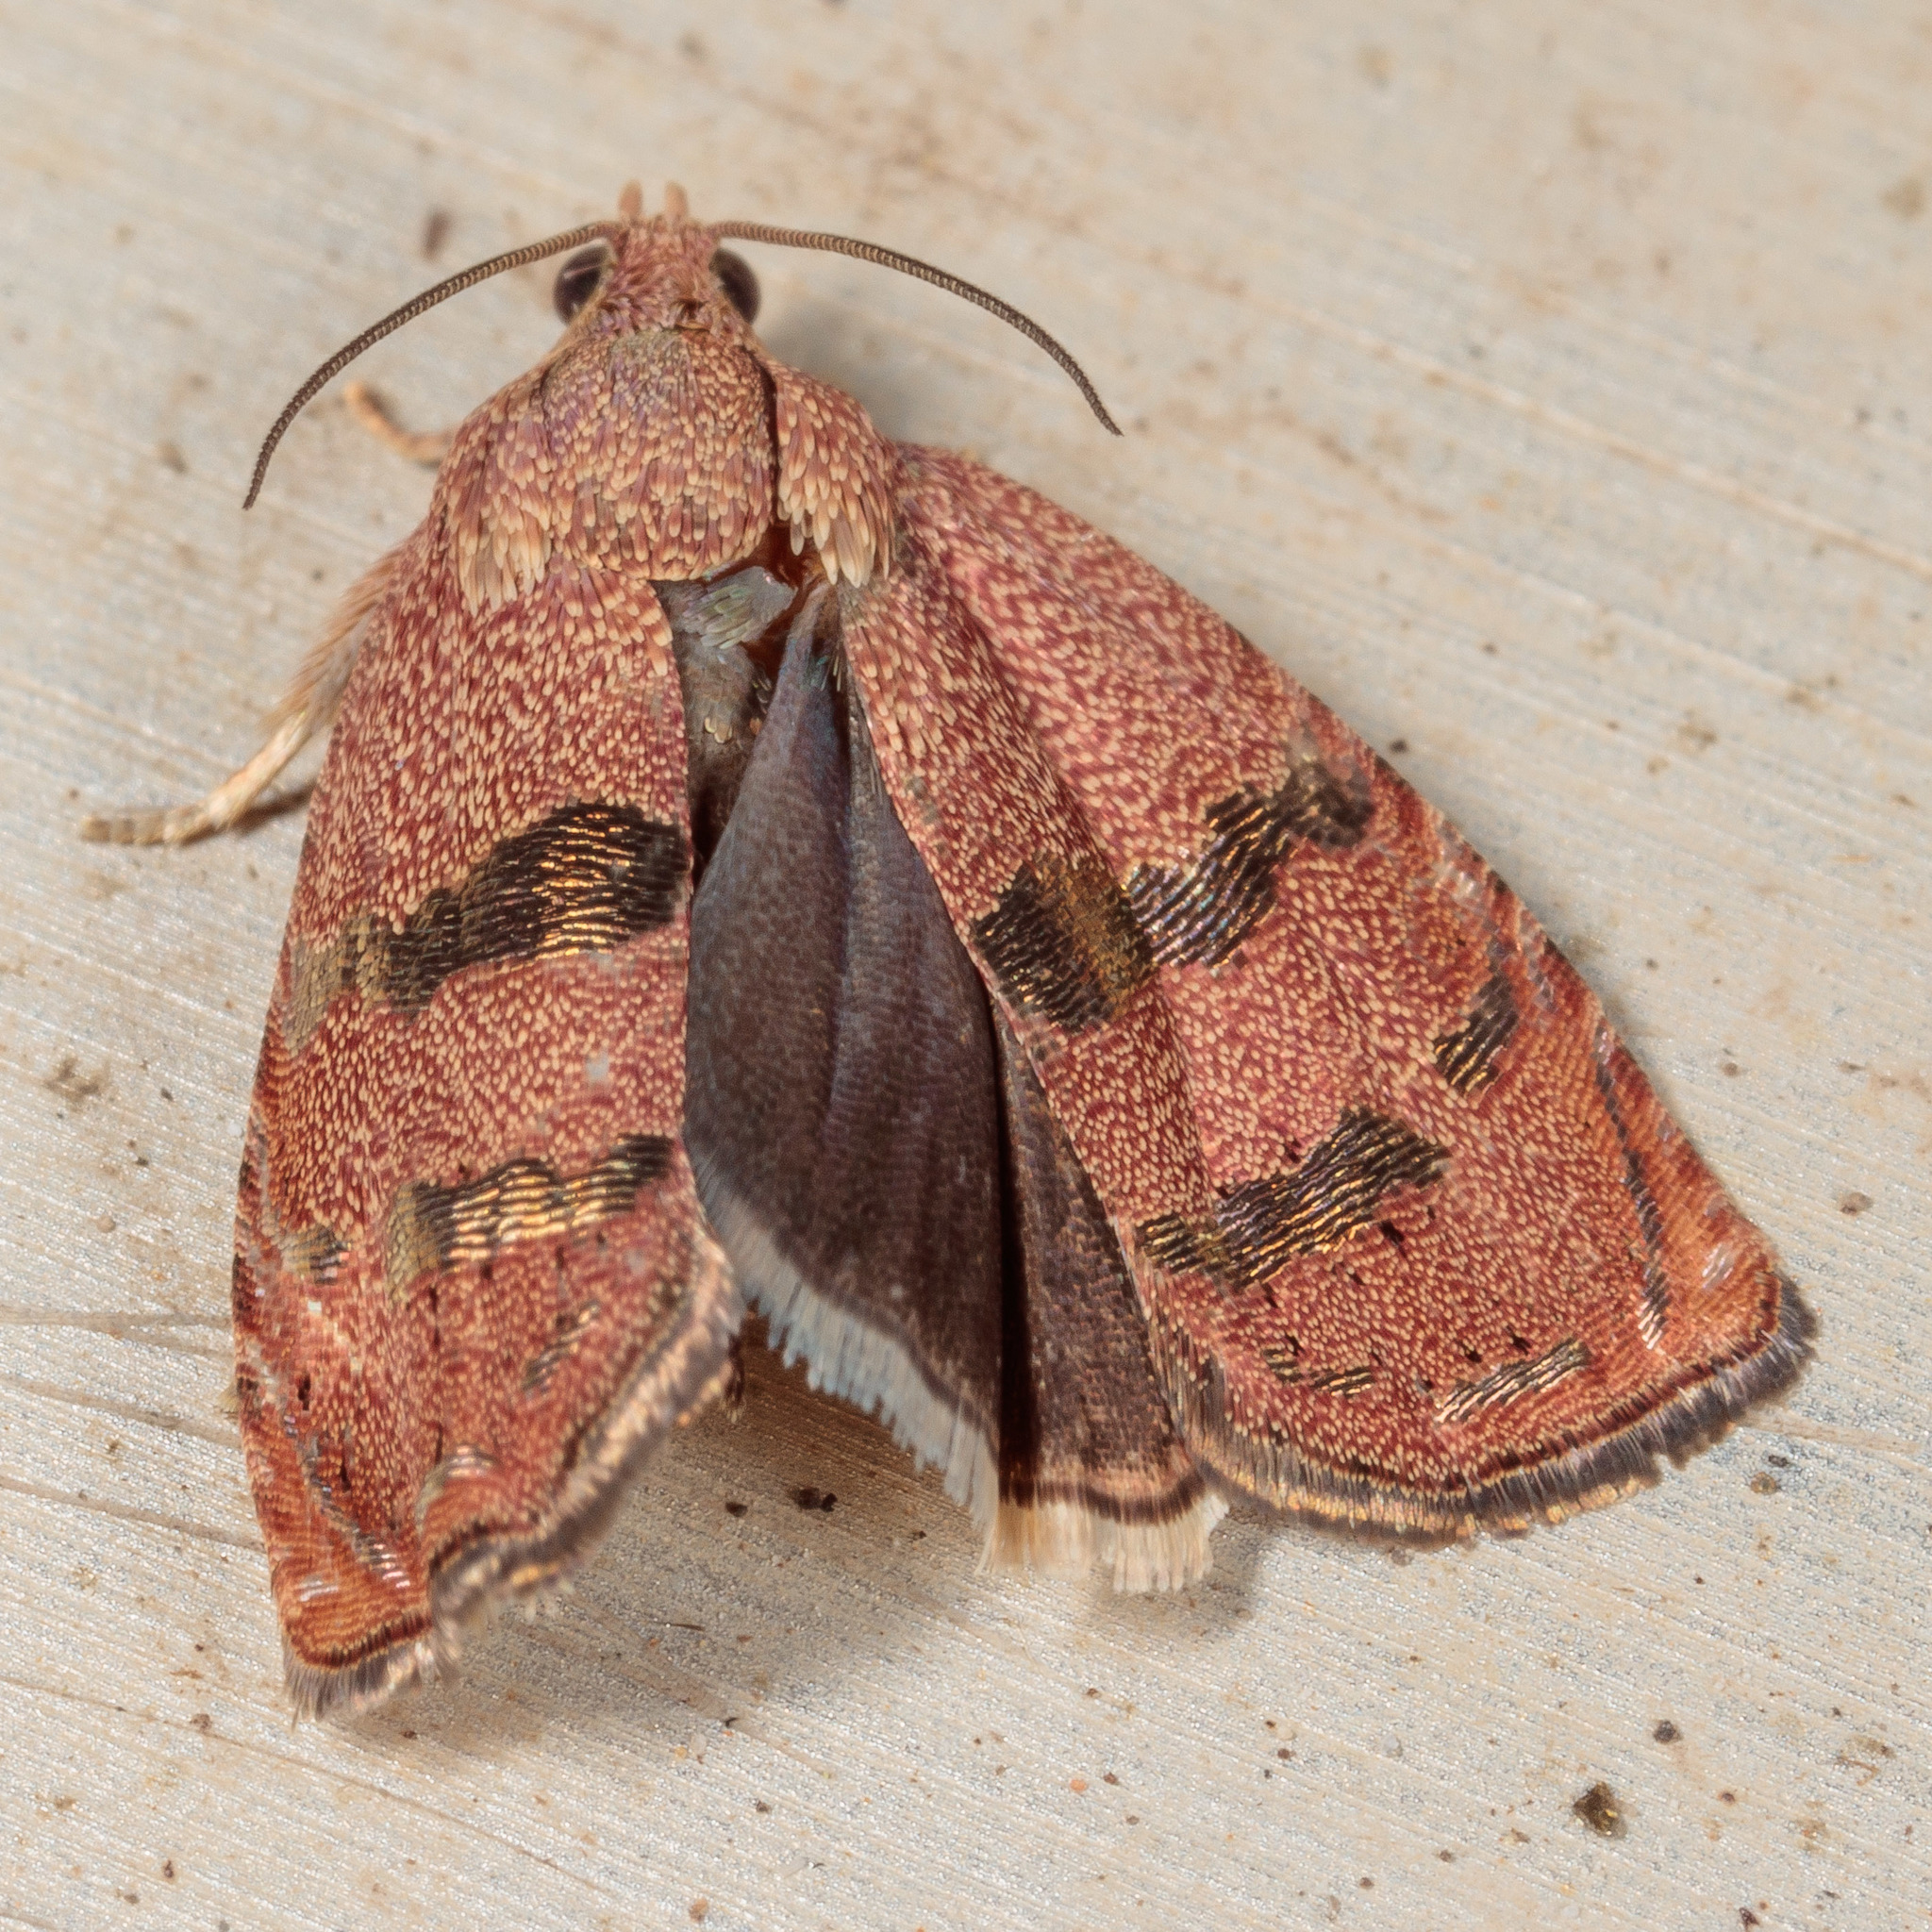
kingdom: Animalia
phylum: Arthropoda
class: Insecta
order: Lepidoptera
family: Tortricidae
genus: Cydia
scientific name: Cydia latiferreana
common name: Filbertworm moth
